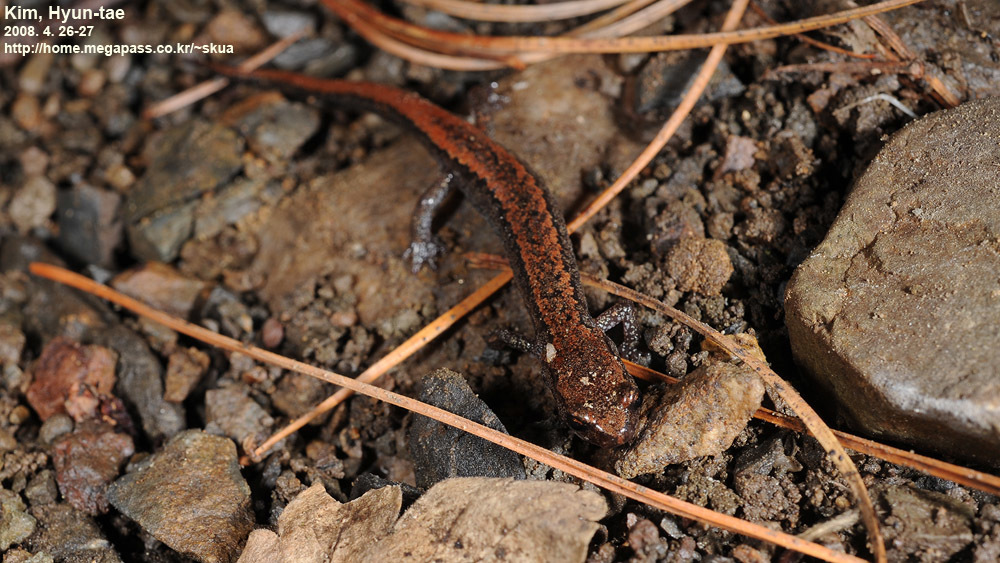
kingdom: Animalia
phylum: Chordata
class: Amphibia
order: Caudata
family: Plethodontidae
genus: Karsenia
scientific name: Karsenia koreana
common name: Korean crevice salamander
